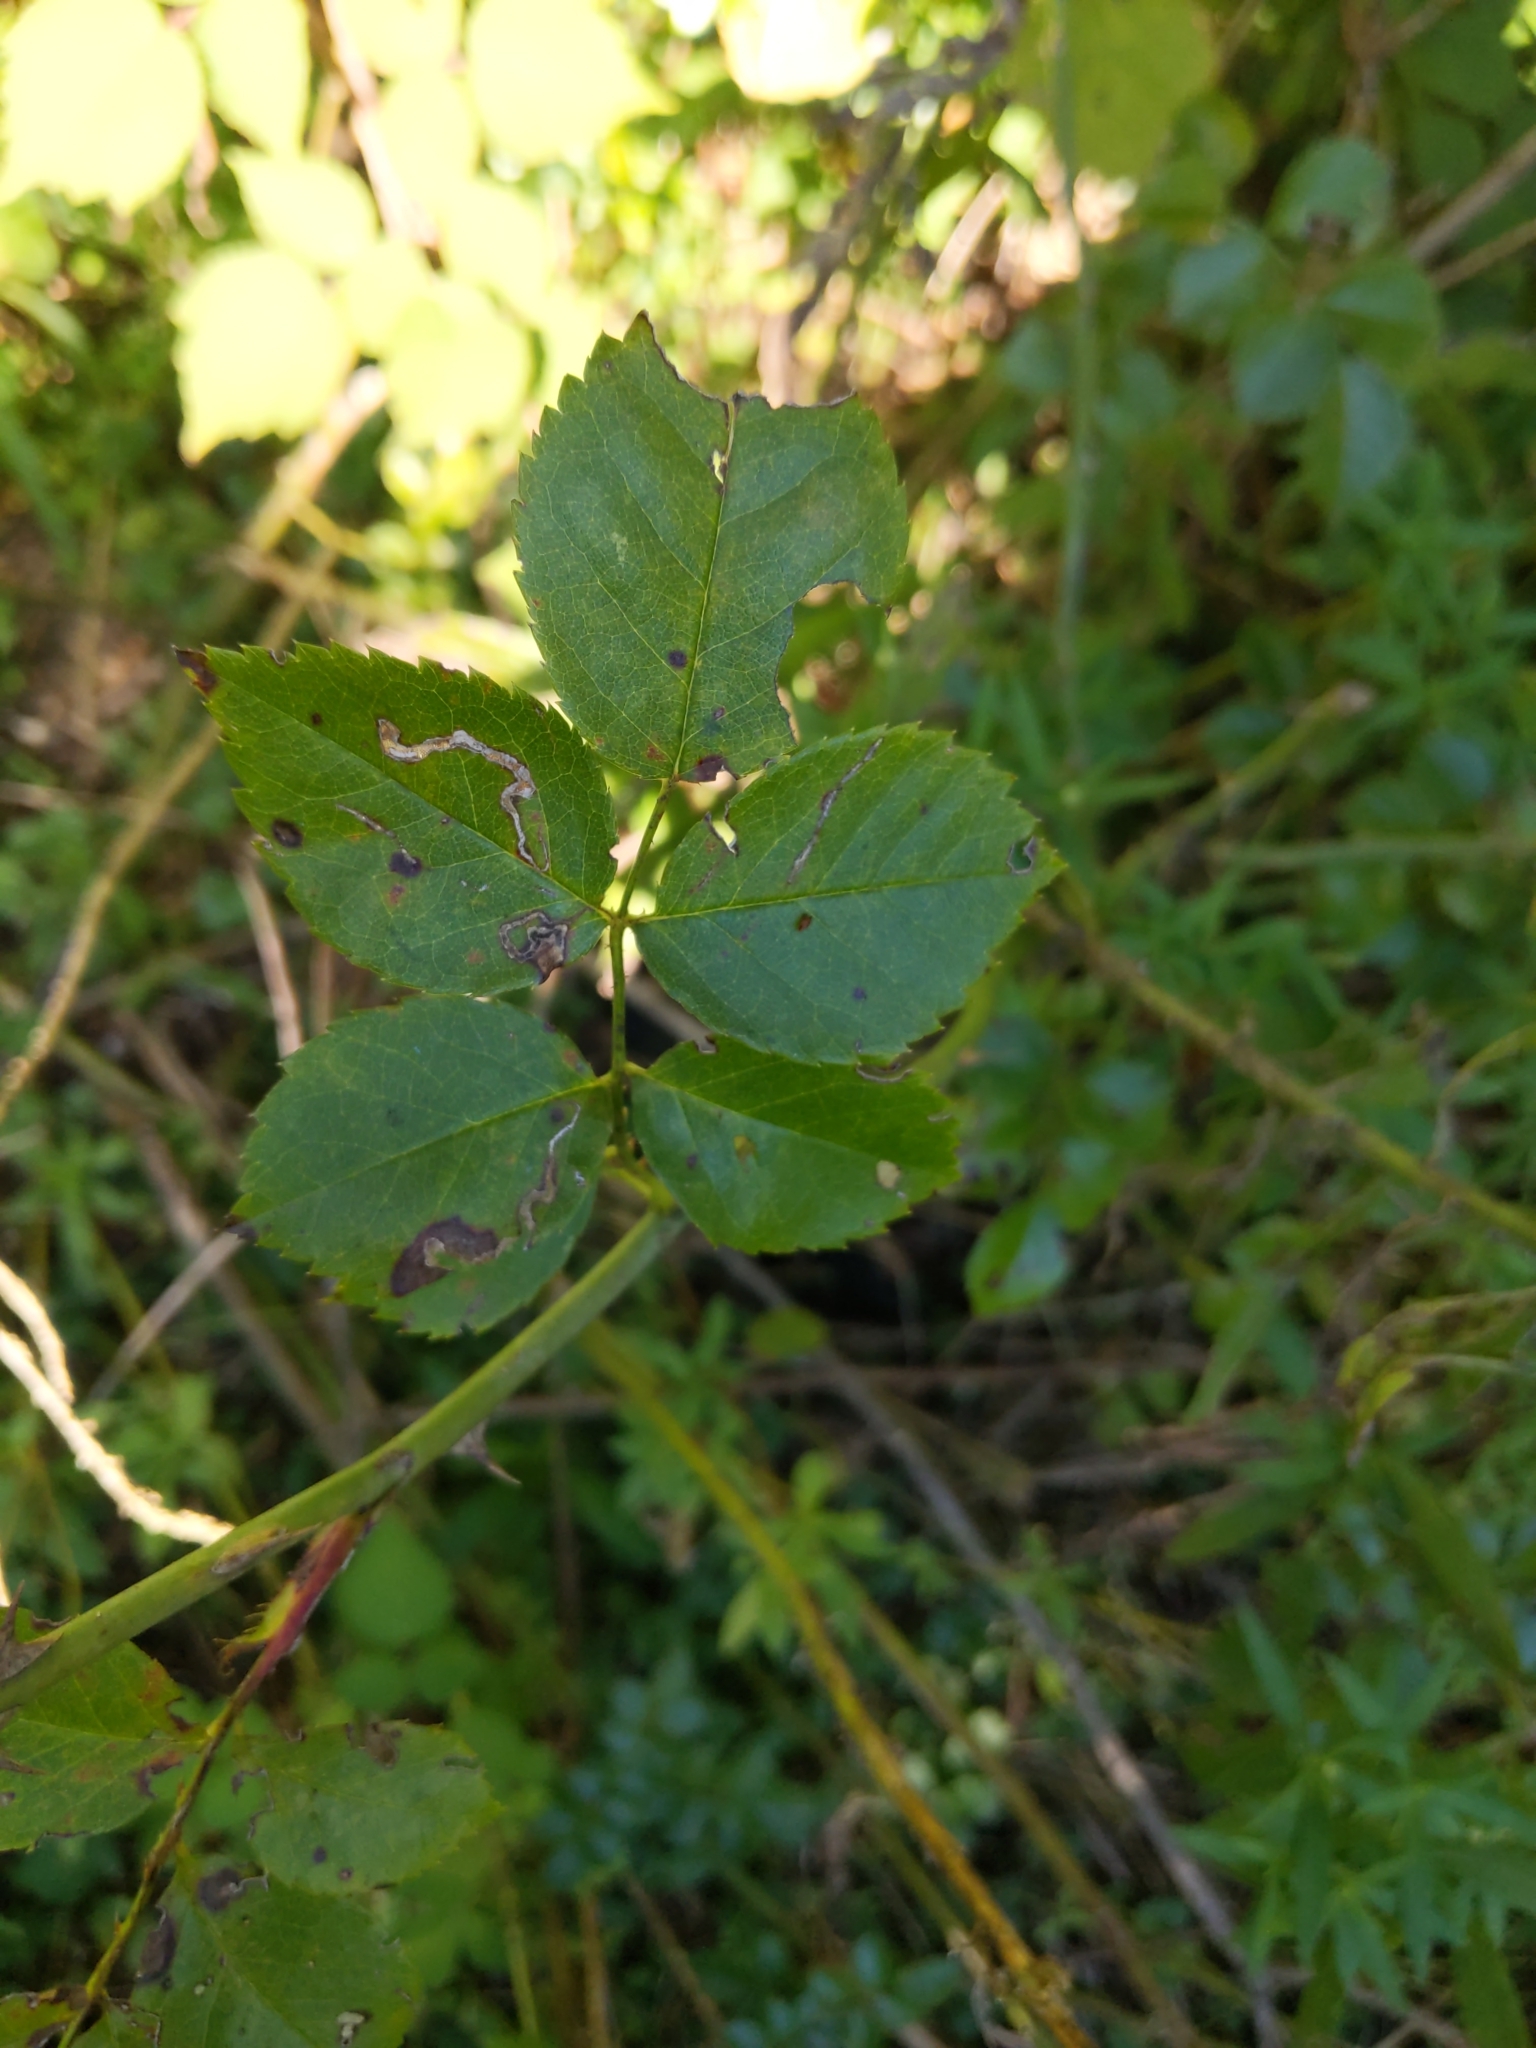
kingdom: Plantae
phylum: Tracheophyta
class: Magnoliopsida
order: Rosales
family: Rosaceae
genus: Rosa
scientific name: Rosa multiflora
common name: Multiflora rose
